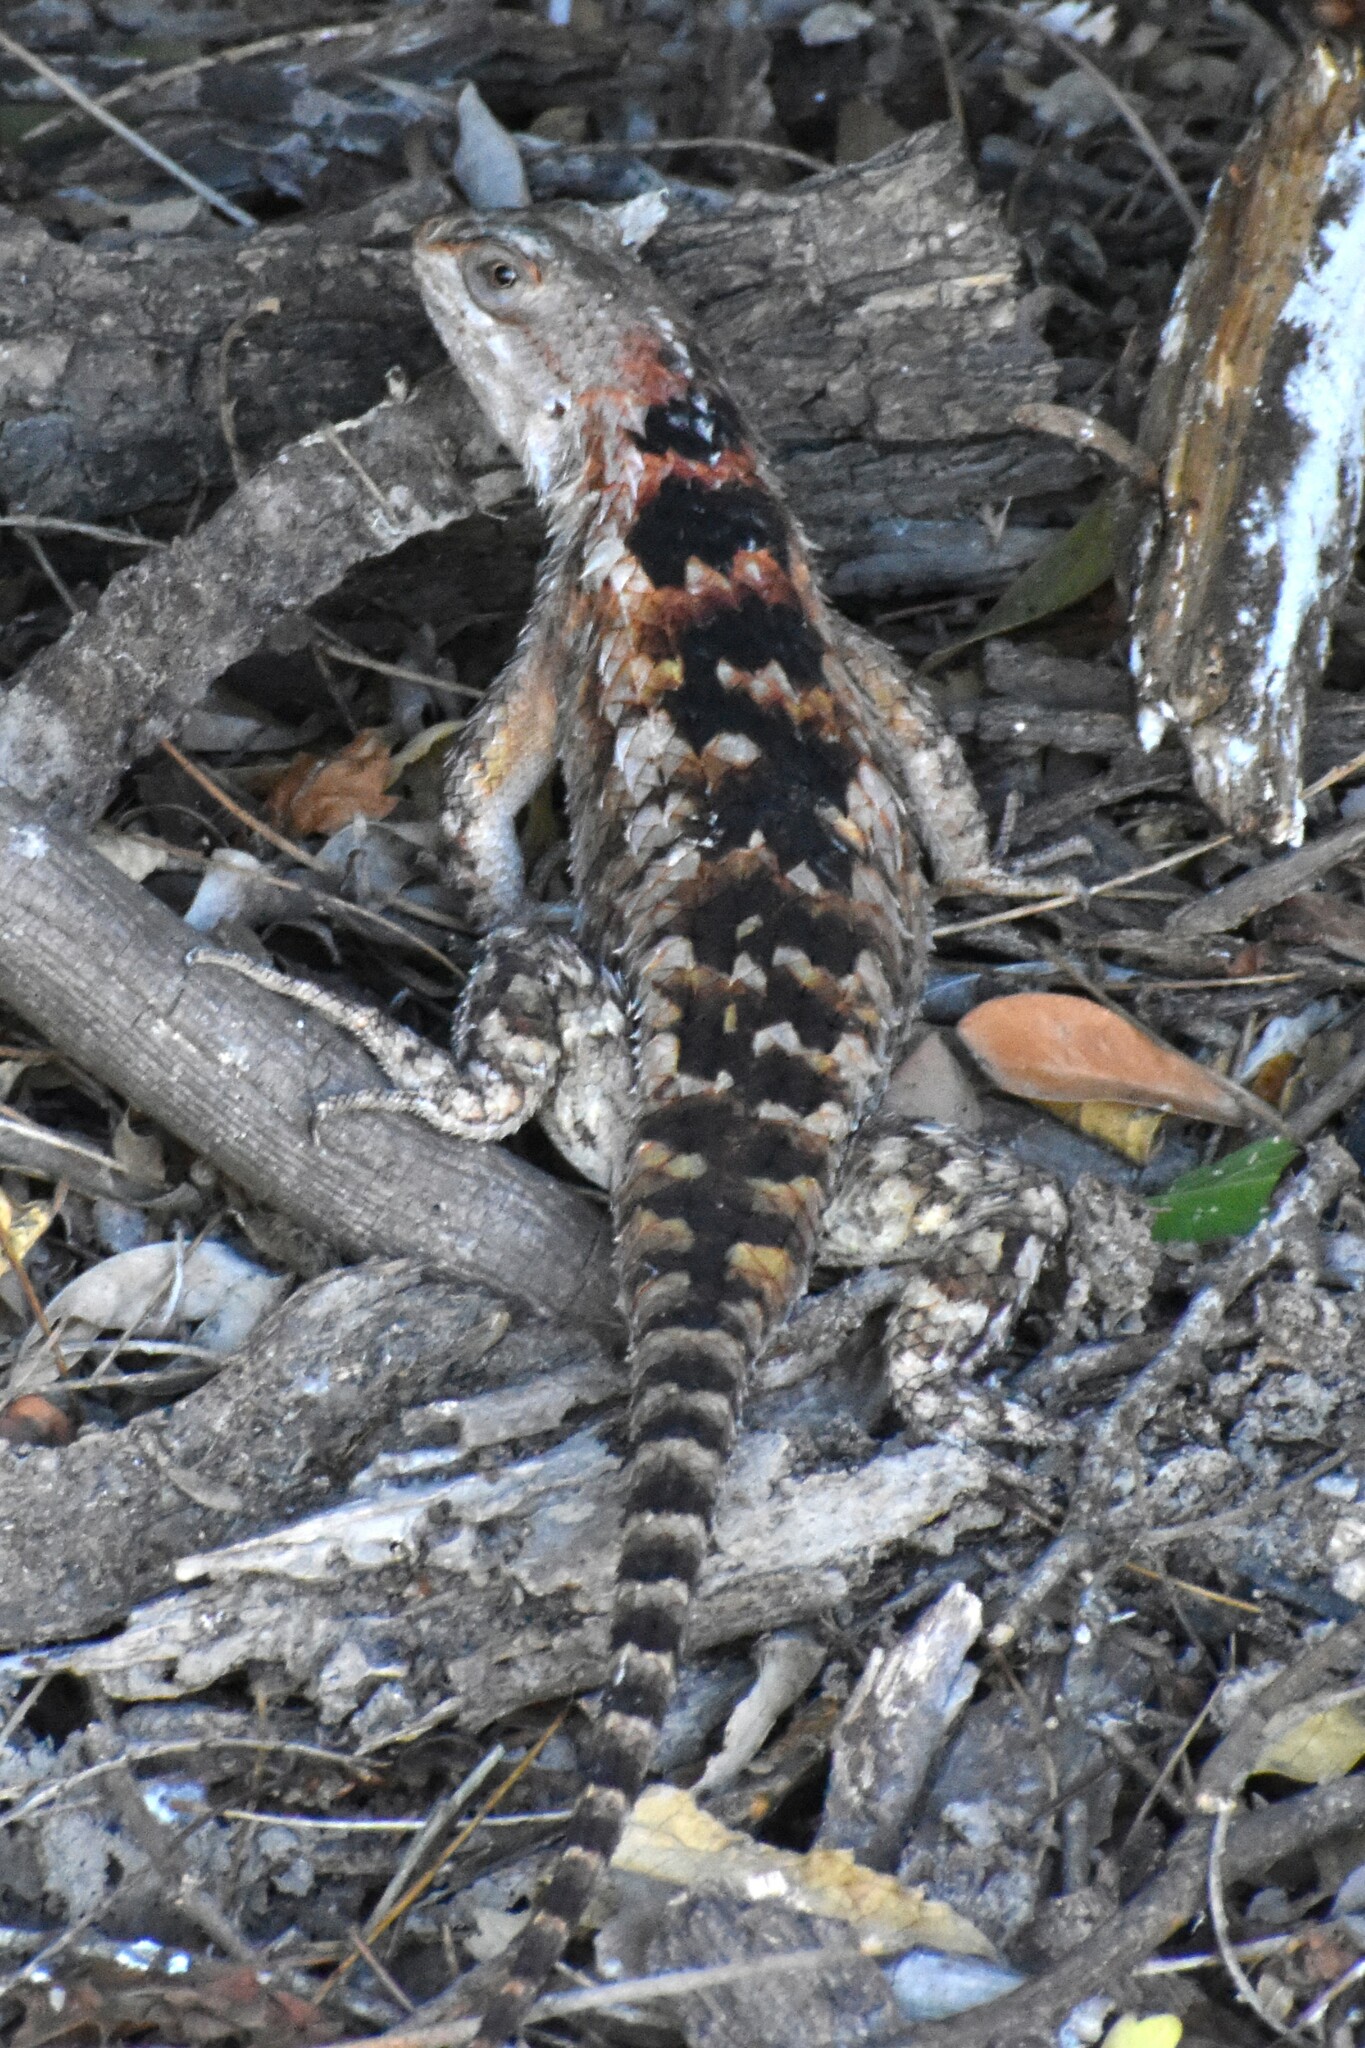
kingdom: Animalia
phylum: Chordata
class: Squamata
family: Phrynosomatidae
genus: Sceloporus
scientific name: Sceloporus olivaceus
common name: Texas spiny lizard
